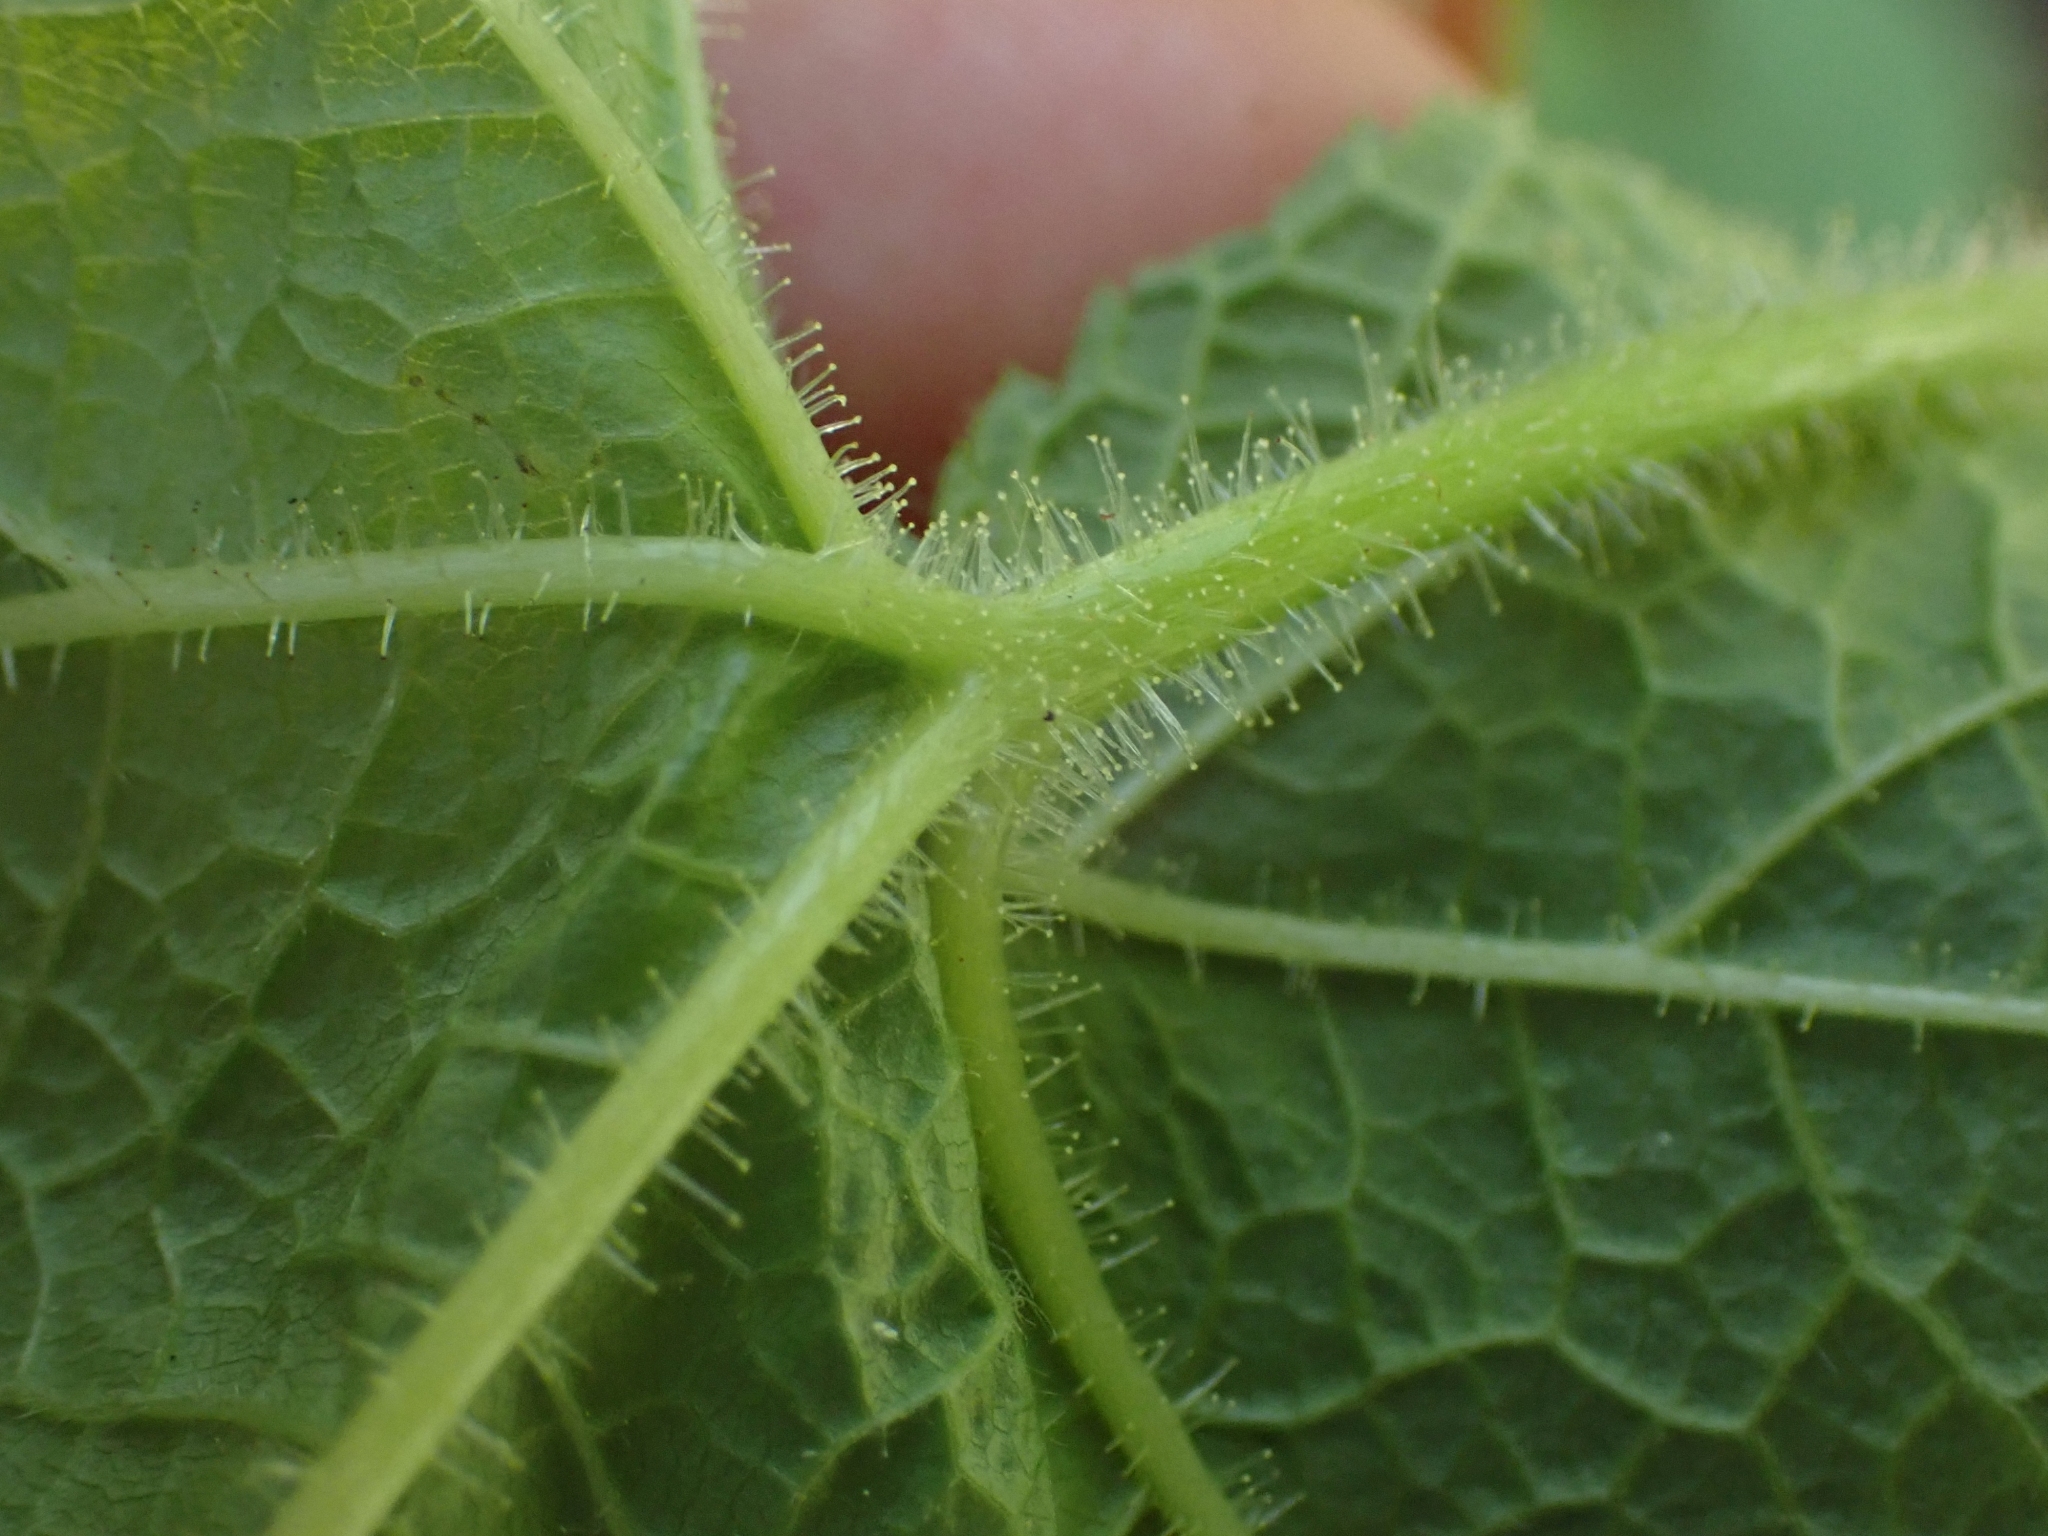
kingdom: Plantae
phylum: Tracheophyta
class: Magnoliopsida
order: Rosales
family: Rosaceae
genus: Rubus
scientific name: Rubus parviflorus
